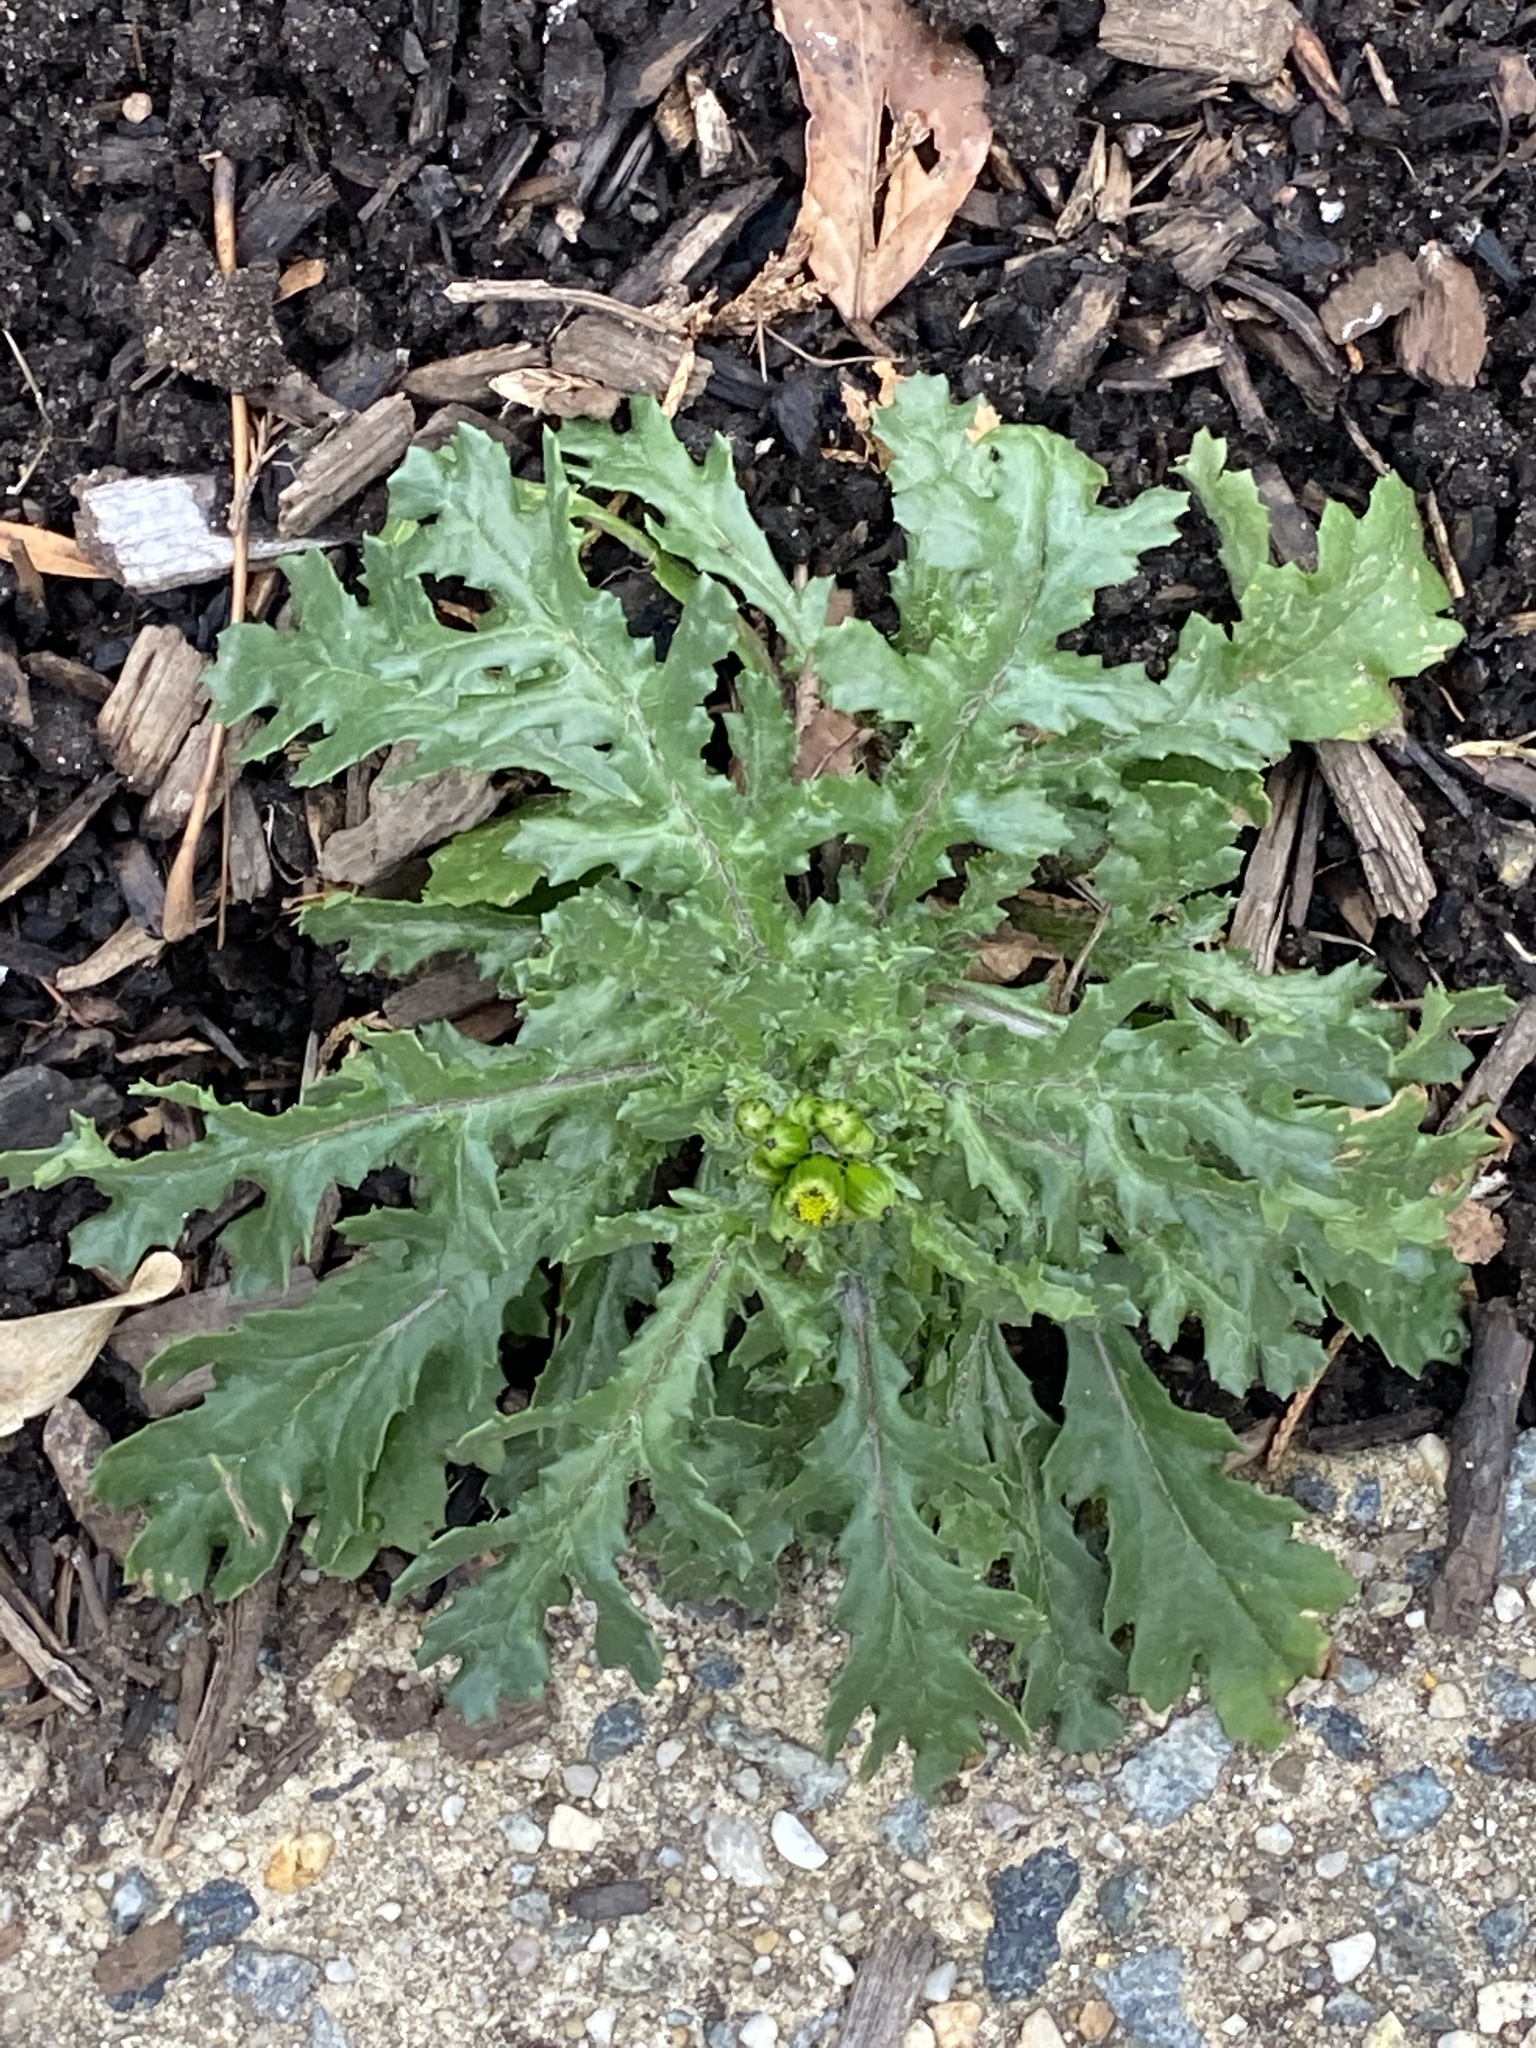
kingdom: Plantae
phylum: Tracheophyta
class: Magnoliopsida
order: Asterales
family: Asteraceae
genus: Senecio
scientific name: Senecio vulgaris
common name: Old-man-in-the-spring
